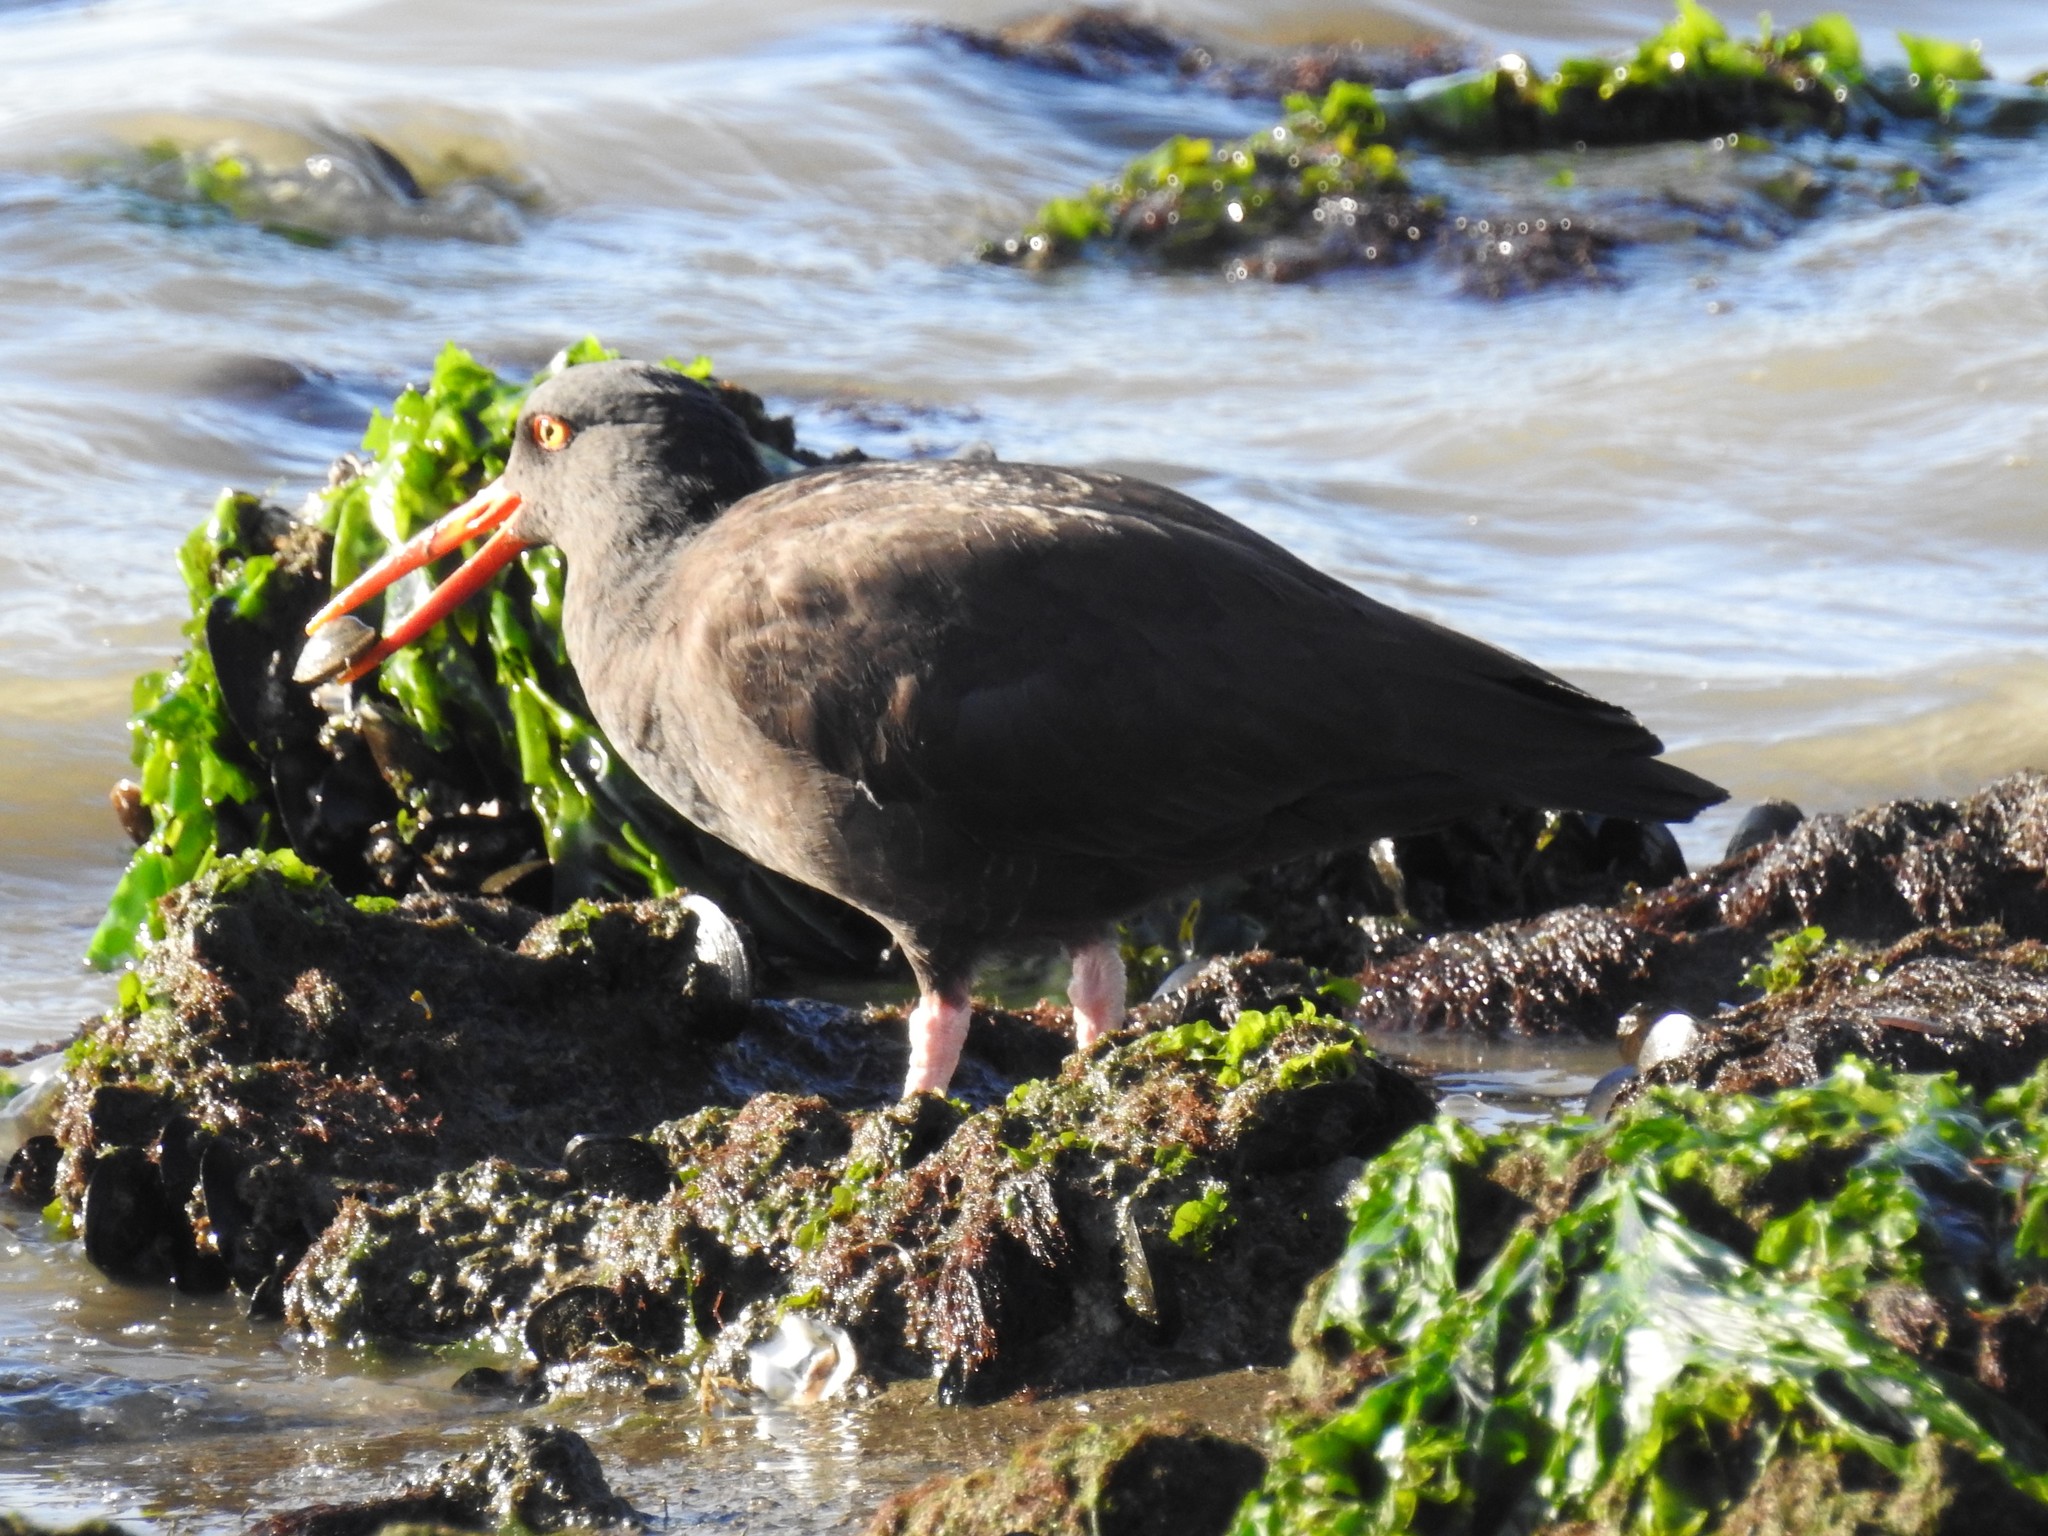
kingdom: Animalia
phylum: Chordata
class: Aves
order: Charadriiformes
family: Haematopodidae
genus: Haematopus
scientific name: Haematopus bachmani
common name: Black oystercatcher
